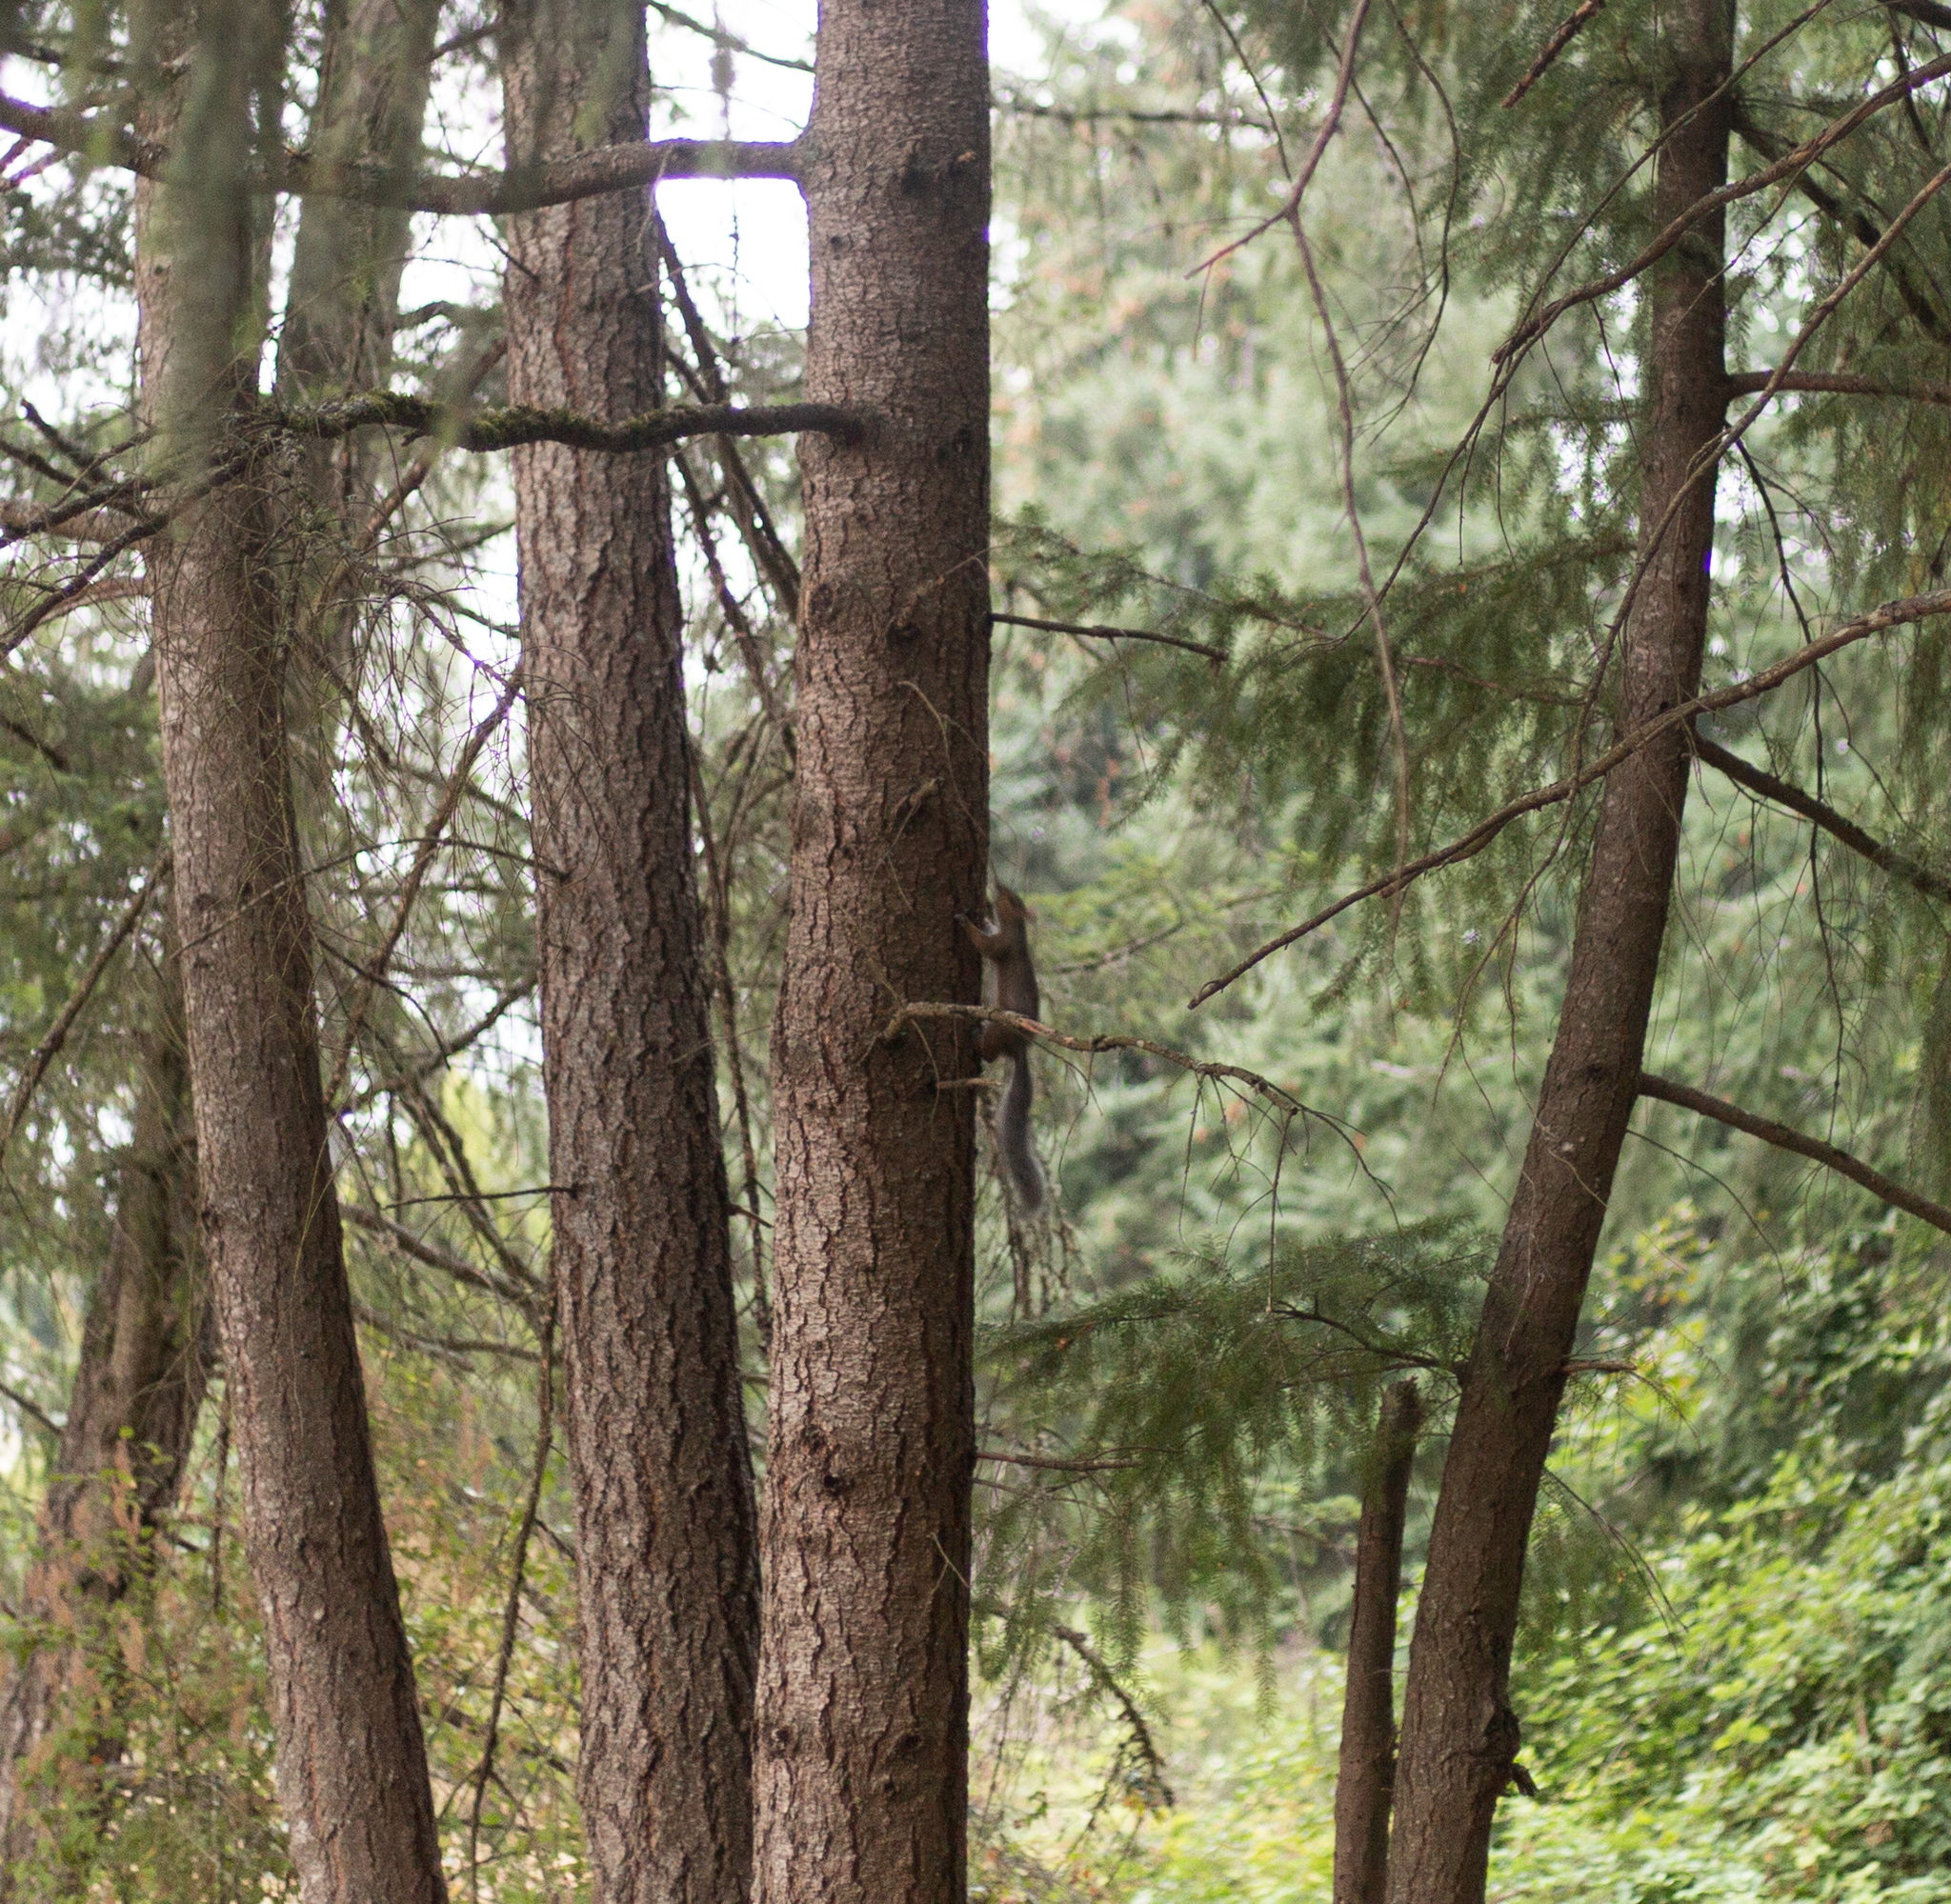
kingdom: Animalia
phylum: Chordata
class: Mammalia
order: Rodentia
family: Sciuridae
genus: Sciurus
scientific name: Sciurus carolinensis
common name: Eastern gray squirrel
